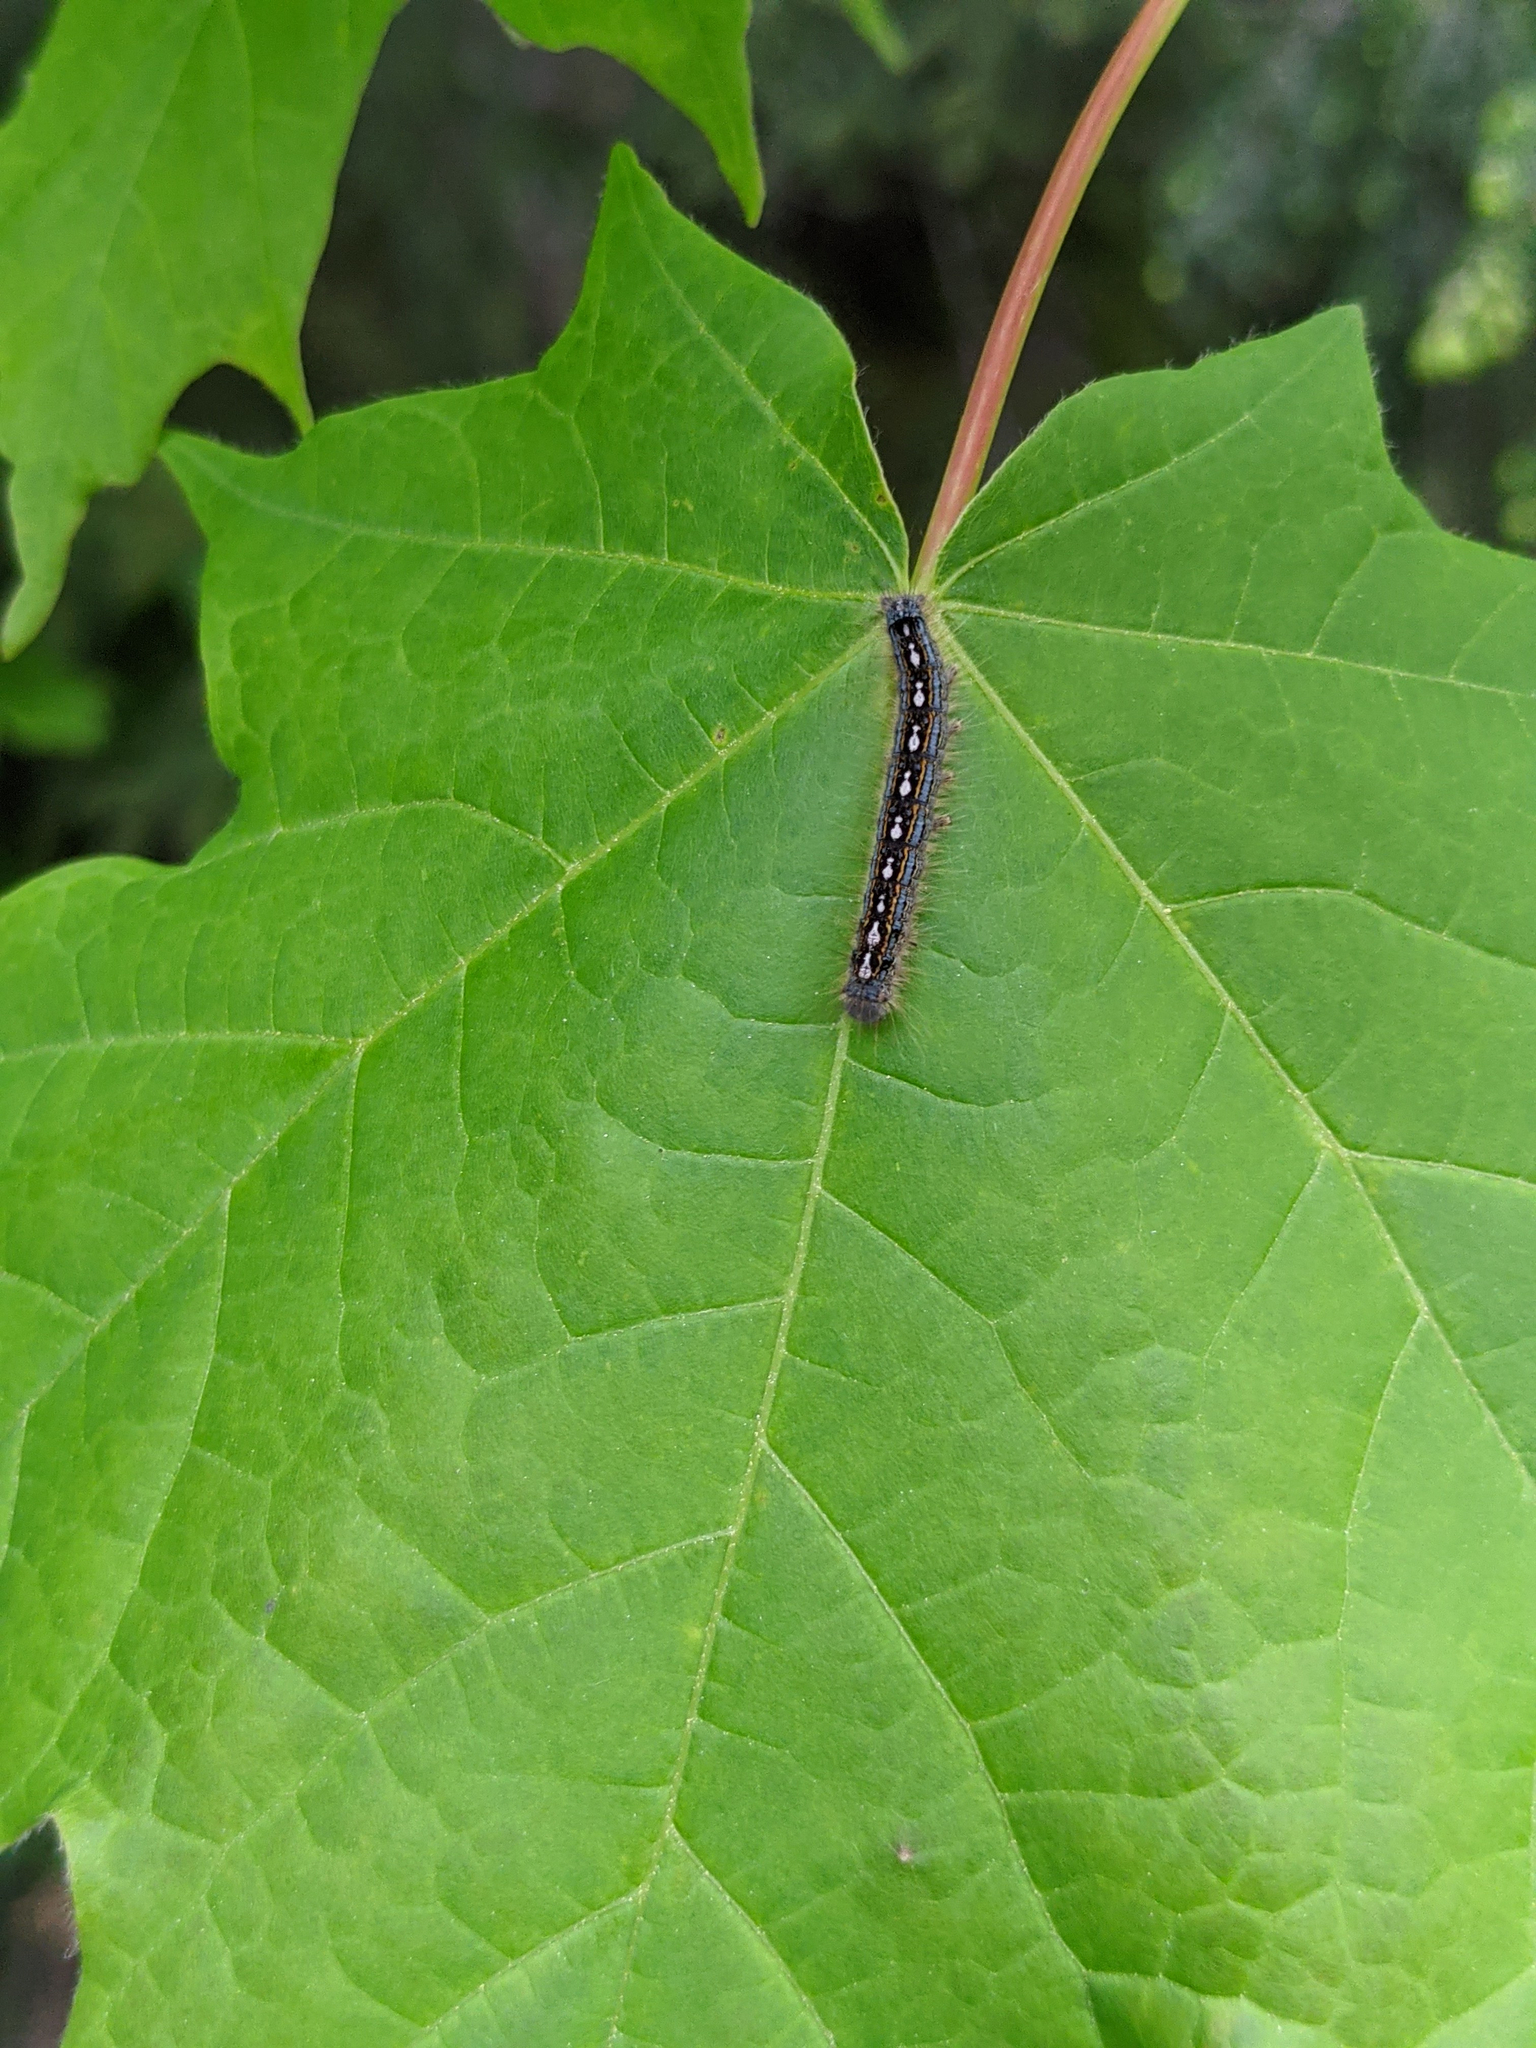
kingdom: Animalia
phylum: Arthropoda
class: Insecta
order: Lepidoptera
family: Lasiocampidae
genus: Malacosoma
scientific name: Malacosoma disstria
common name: Forest tent caterpillar
